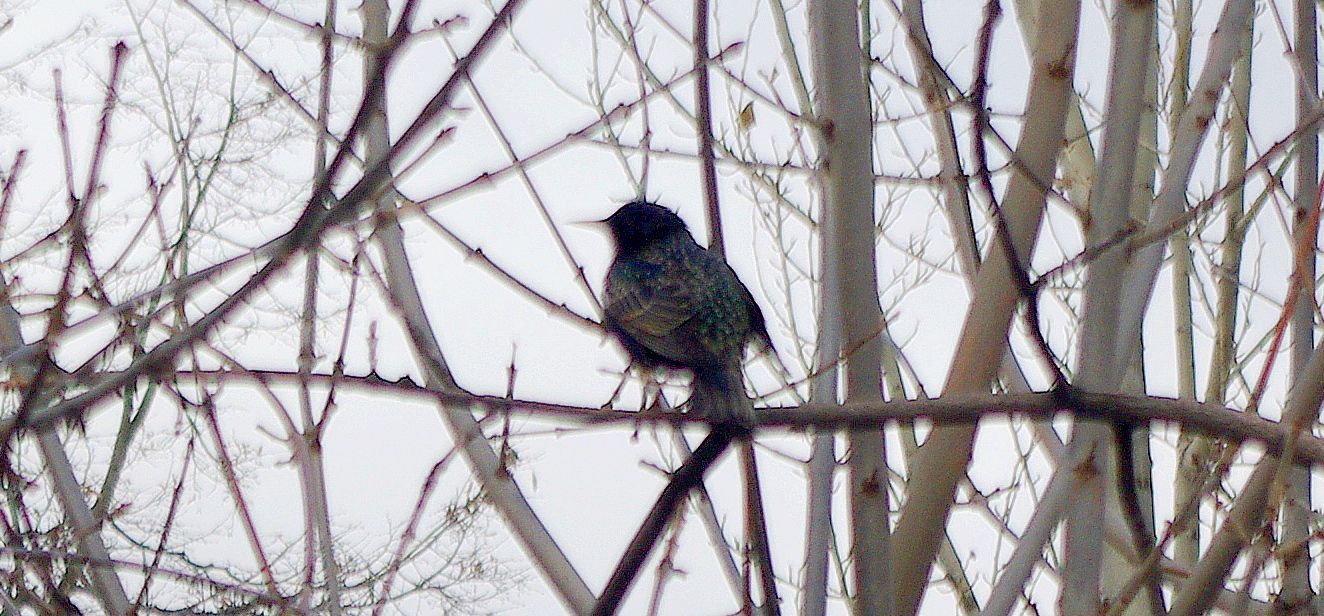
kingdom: Animalia
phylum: Chordata
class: Aves
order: Passeriformes
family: Sturnidae
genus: Sturnus
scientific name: Sturnus vulgaris
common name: Common starling
